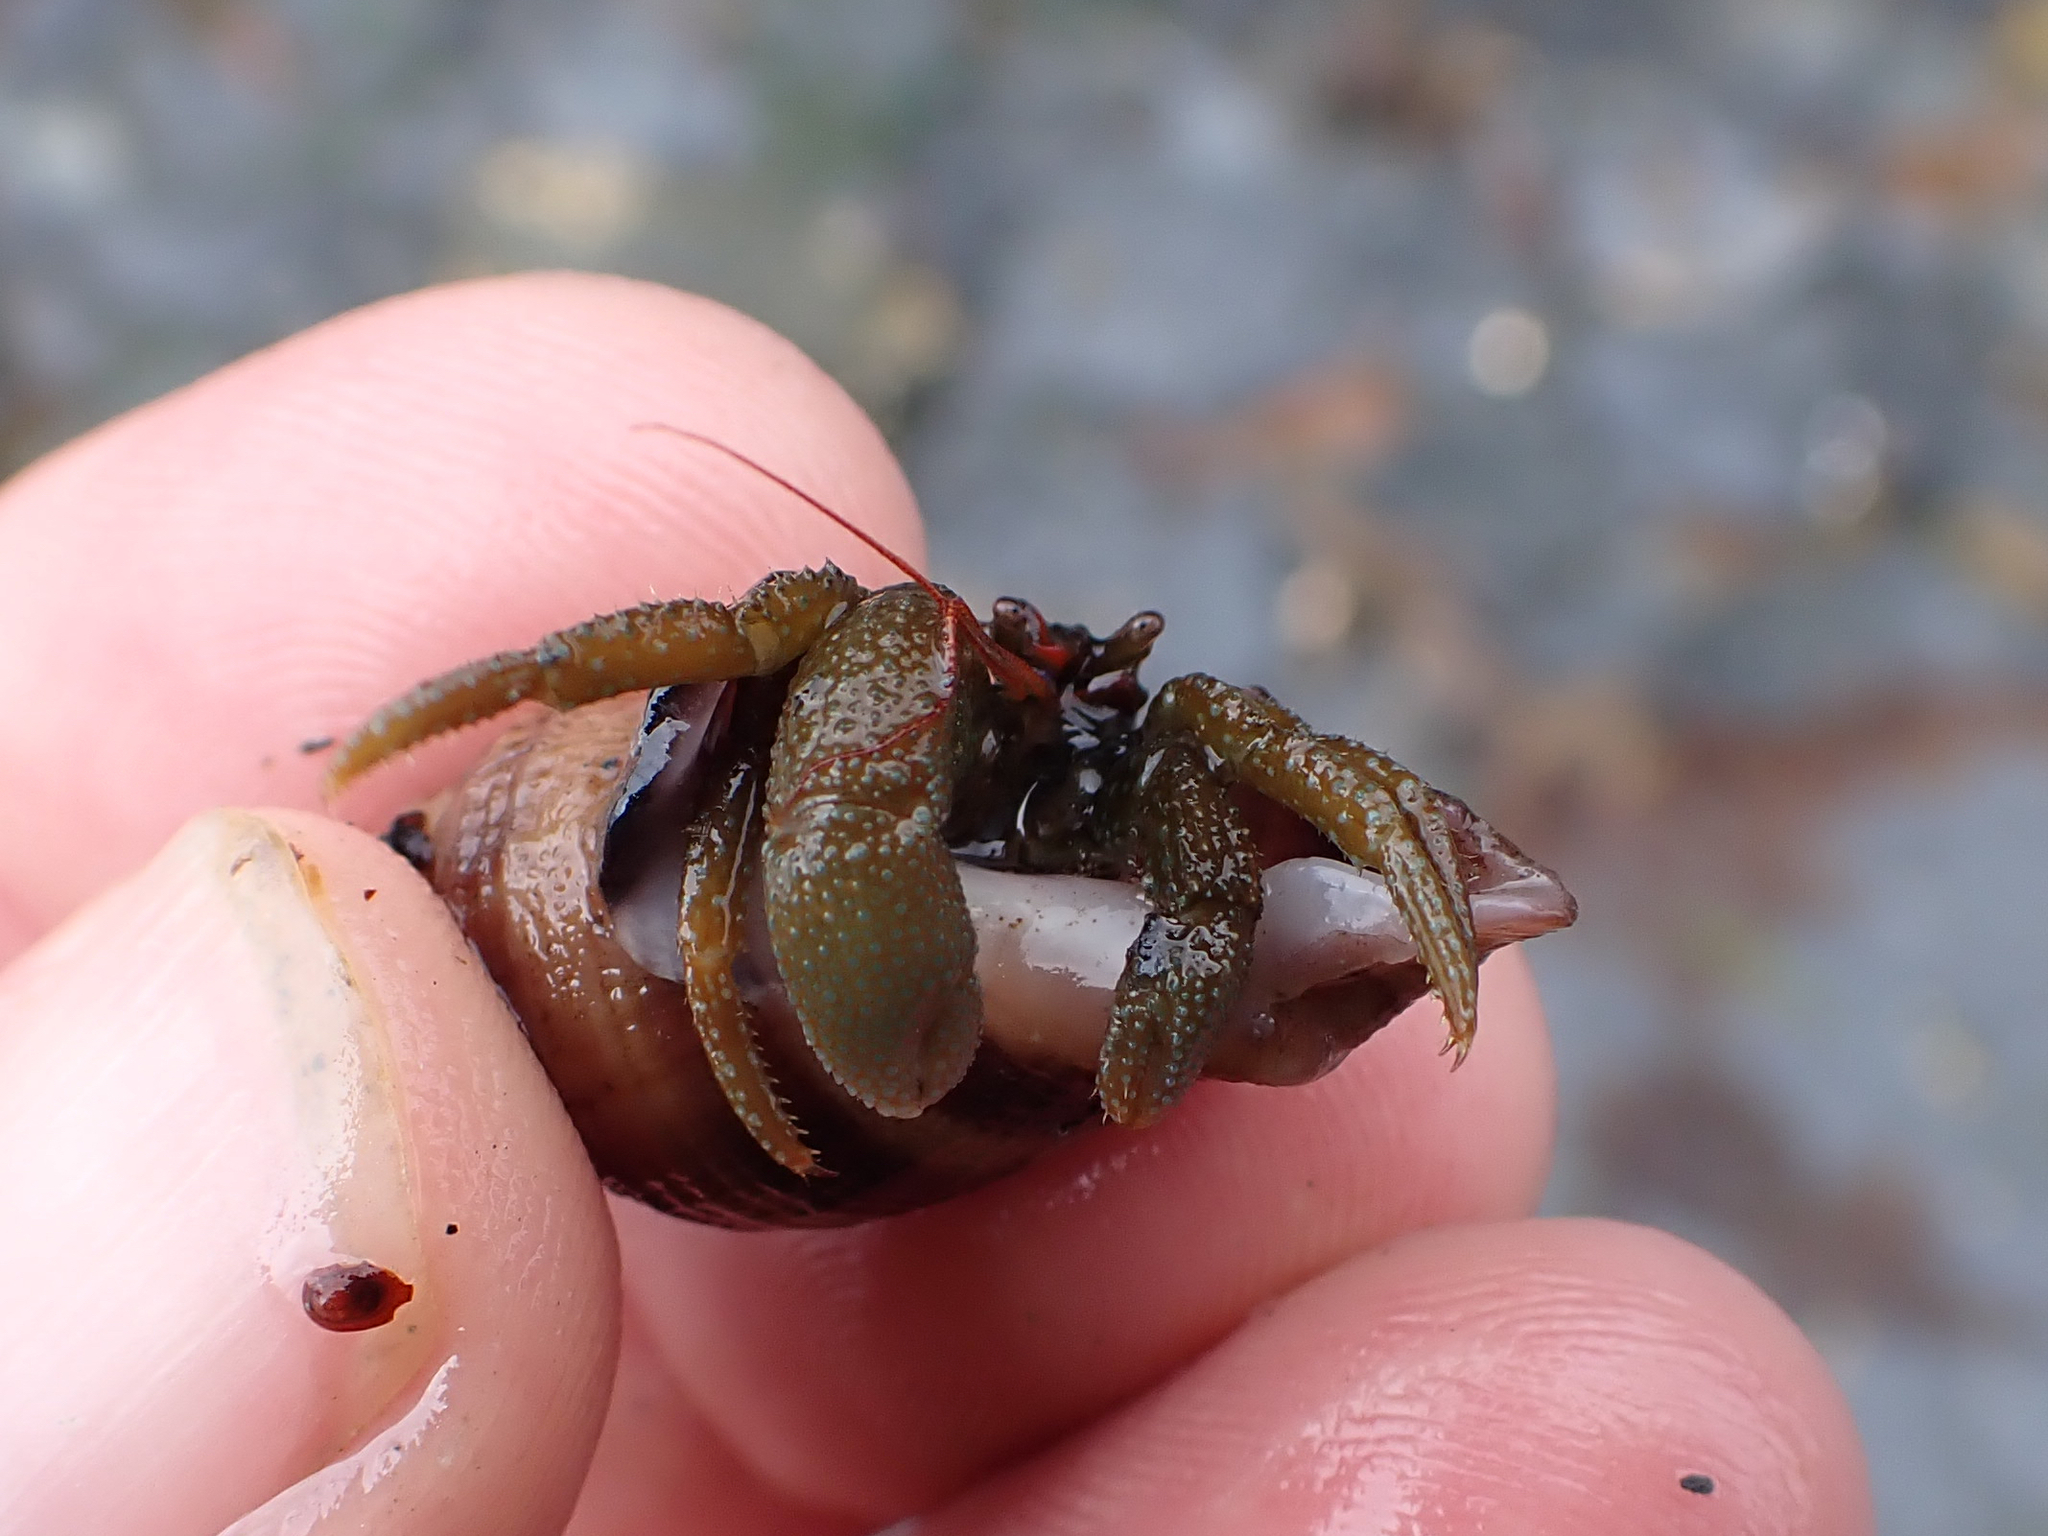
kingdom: Animalia
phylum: Arthropoda
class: Malacostraca
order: Decapoda
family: Paguridae
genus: Pagurus
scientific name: Pagurus granosimanus
